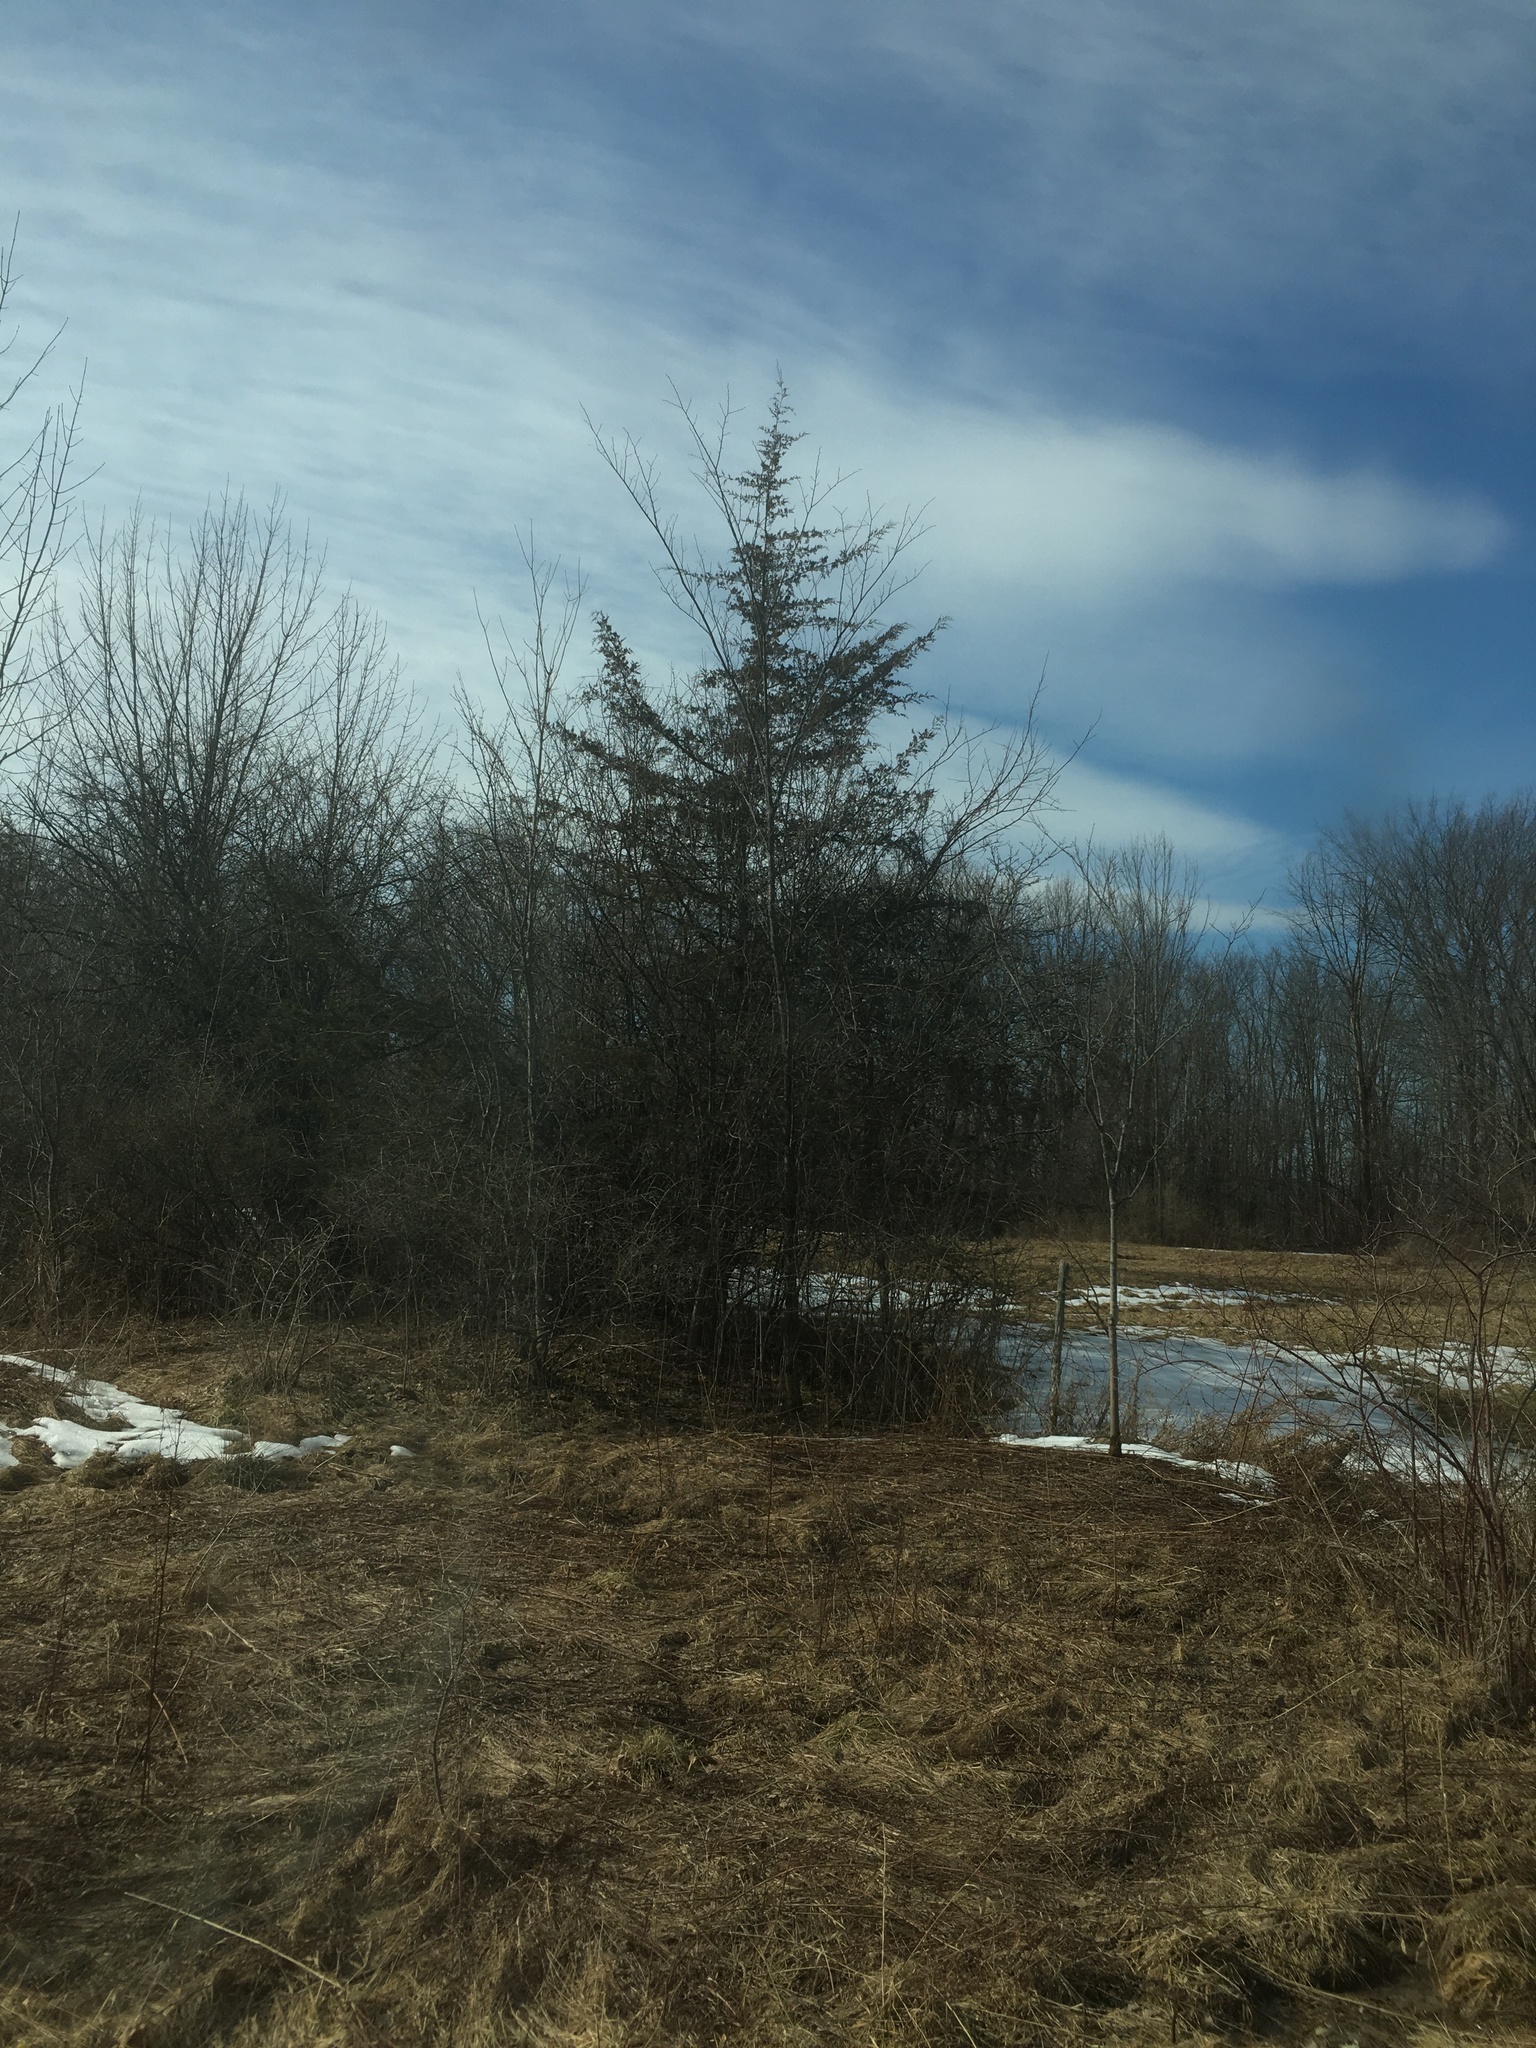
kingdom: Plantae
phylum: Tracheophyta
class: Pinopsida
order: Pinales
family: Cupressaceae
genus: Juniperus
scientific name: Juniperus virginiana
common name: Red juniper
